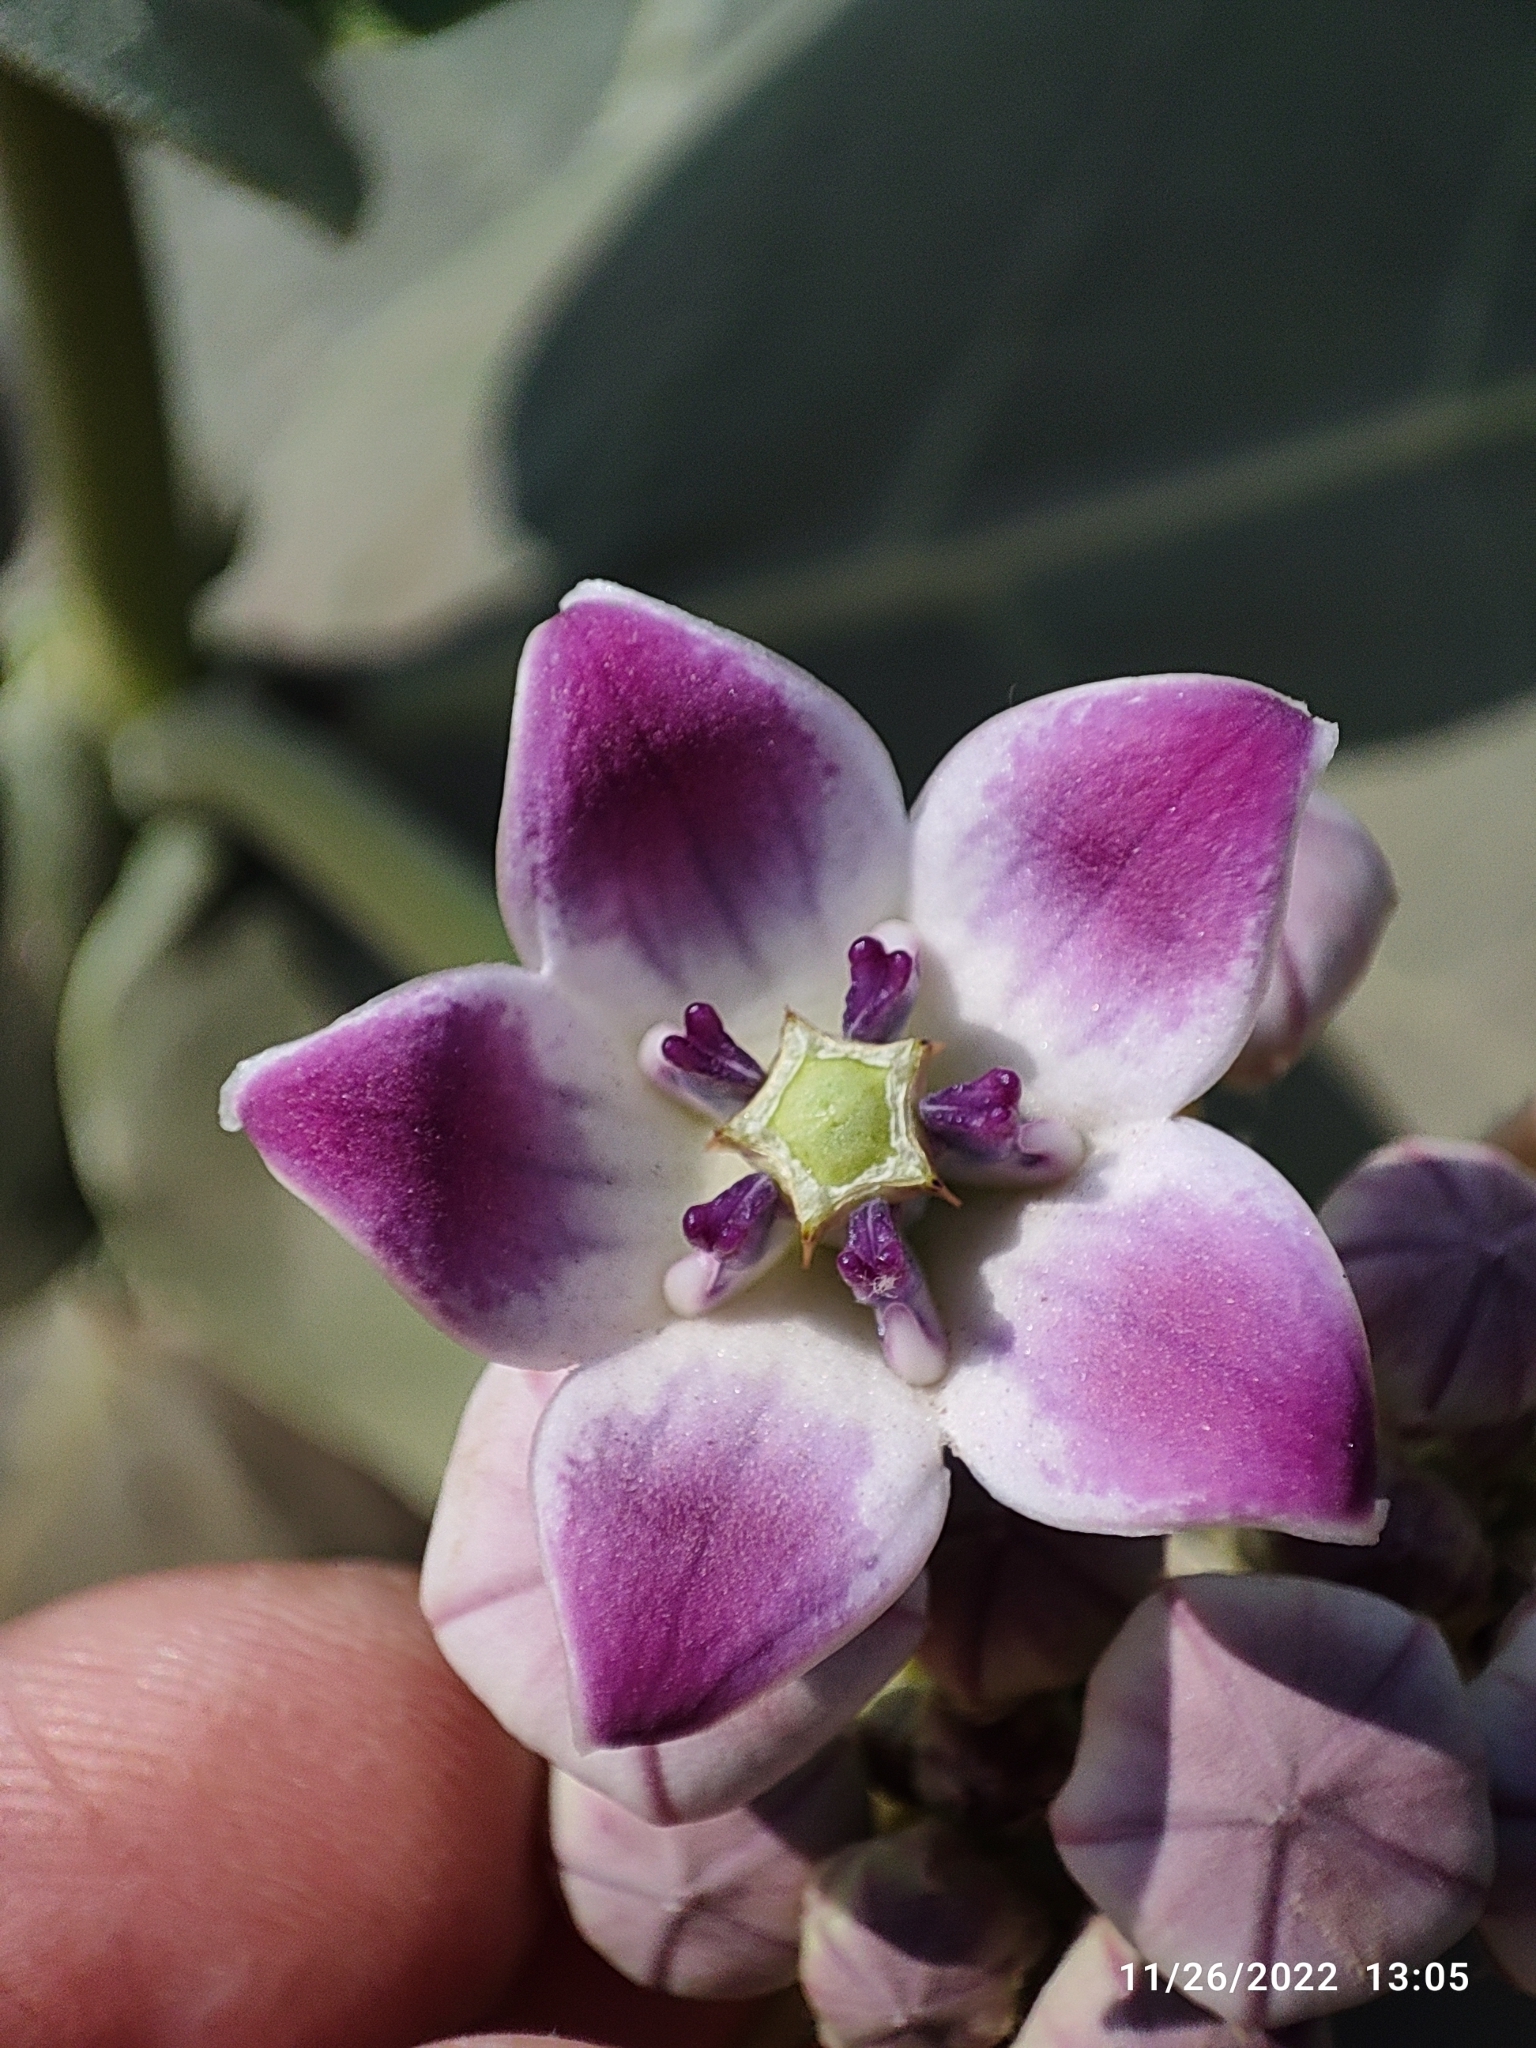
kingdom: Plantae
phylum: Tracheophyta
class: Magnoliopsida
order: Gentianales
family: Apocynaceae
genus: Calotropis
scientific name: Calotropis procera
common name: Roostertree
